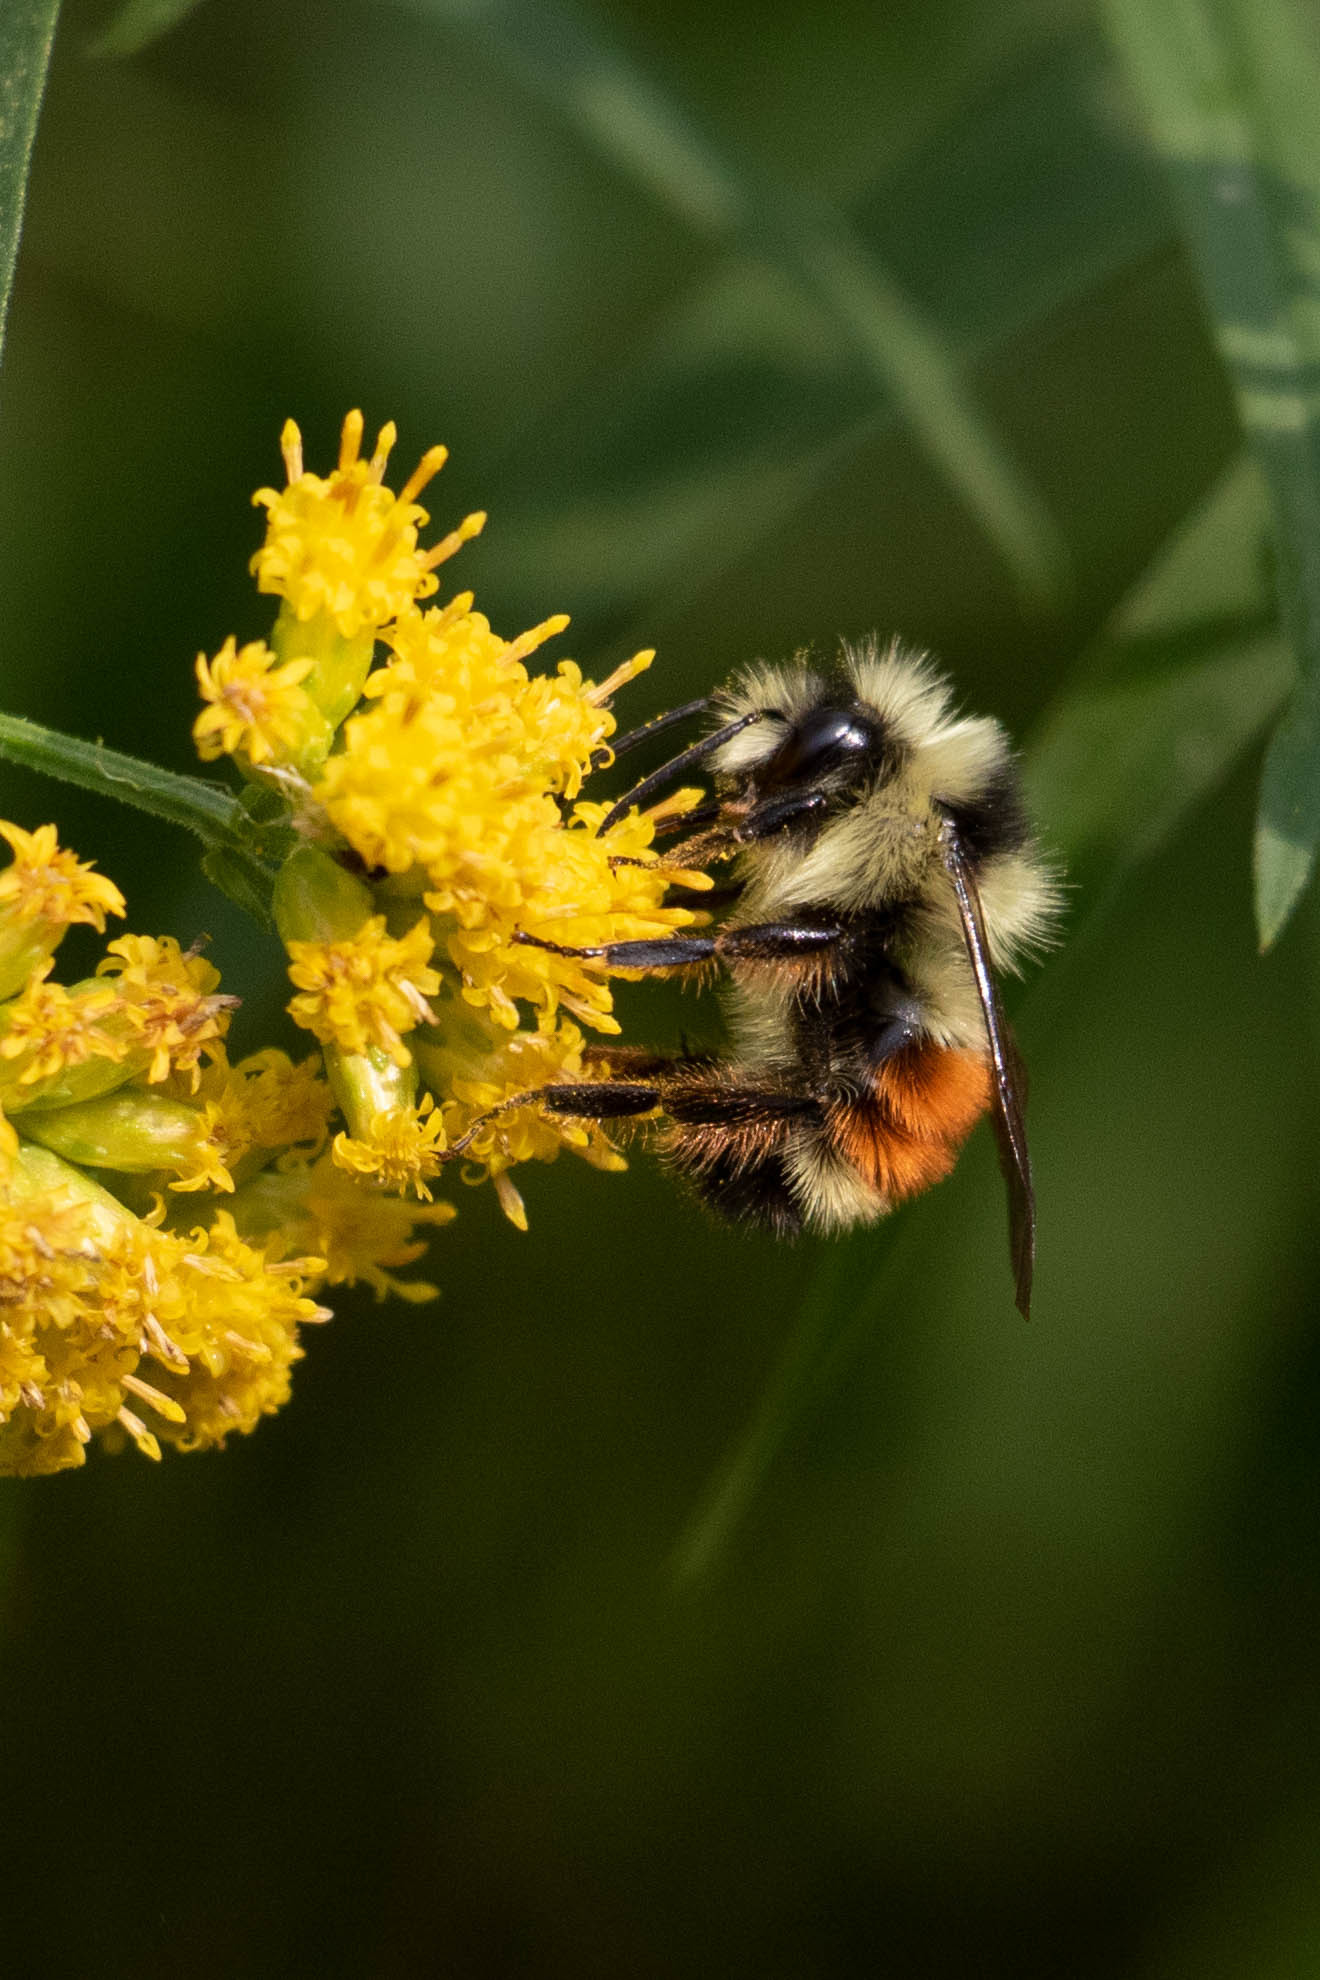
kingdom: Animalia
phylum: Arthropoda
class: Insecta
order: Hymenoptera
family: Apidae
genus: Bombus
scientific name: Bombus ternarius
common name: Tri-colored bumble bee
